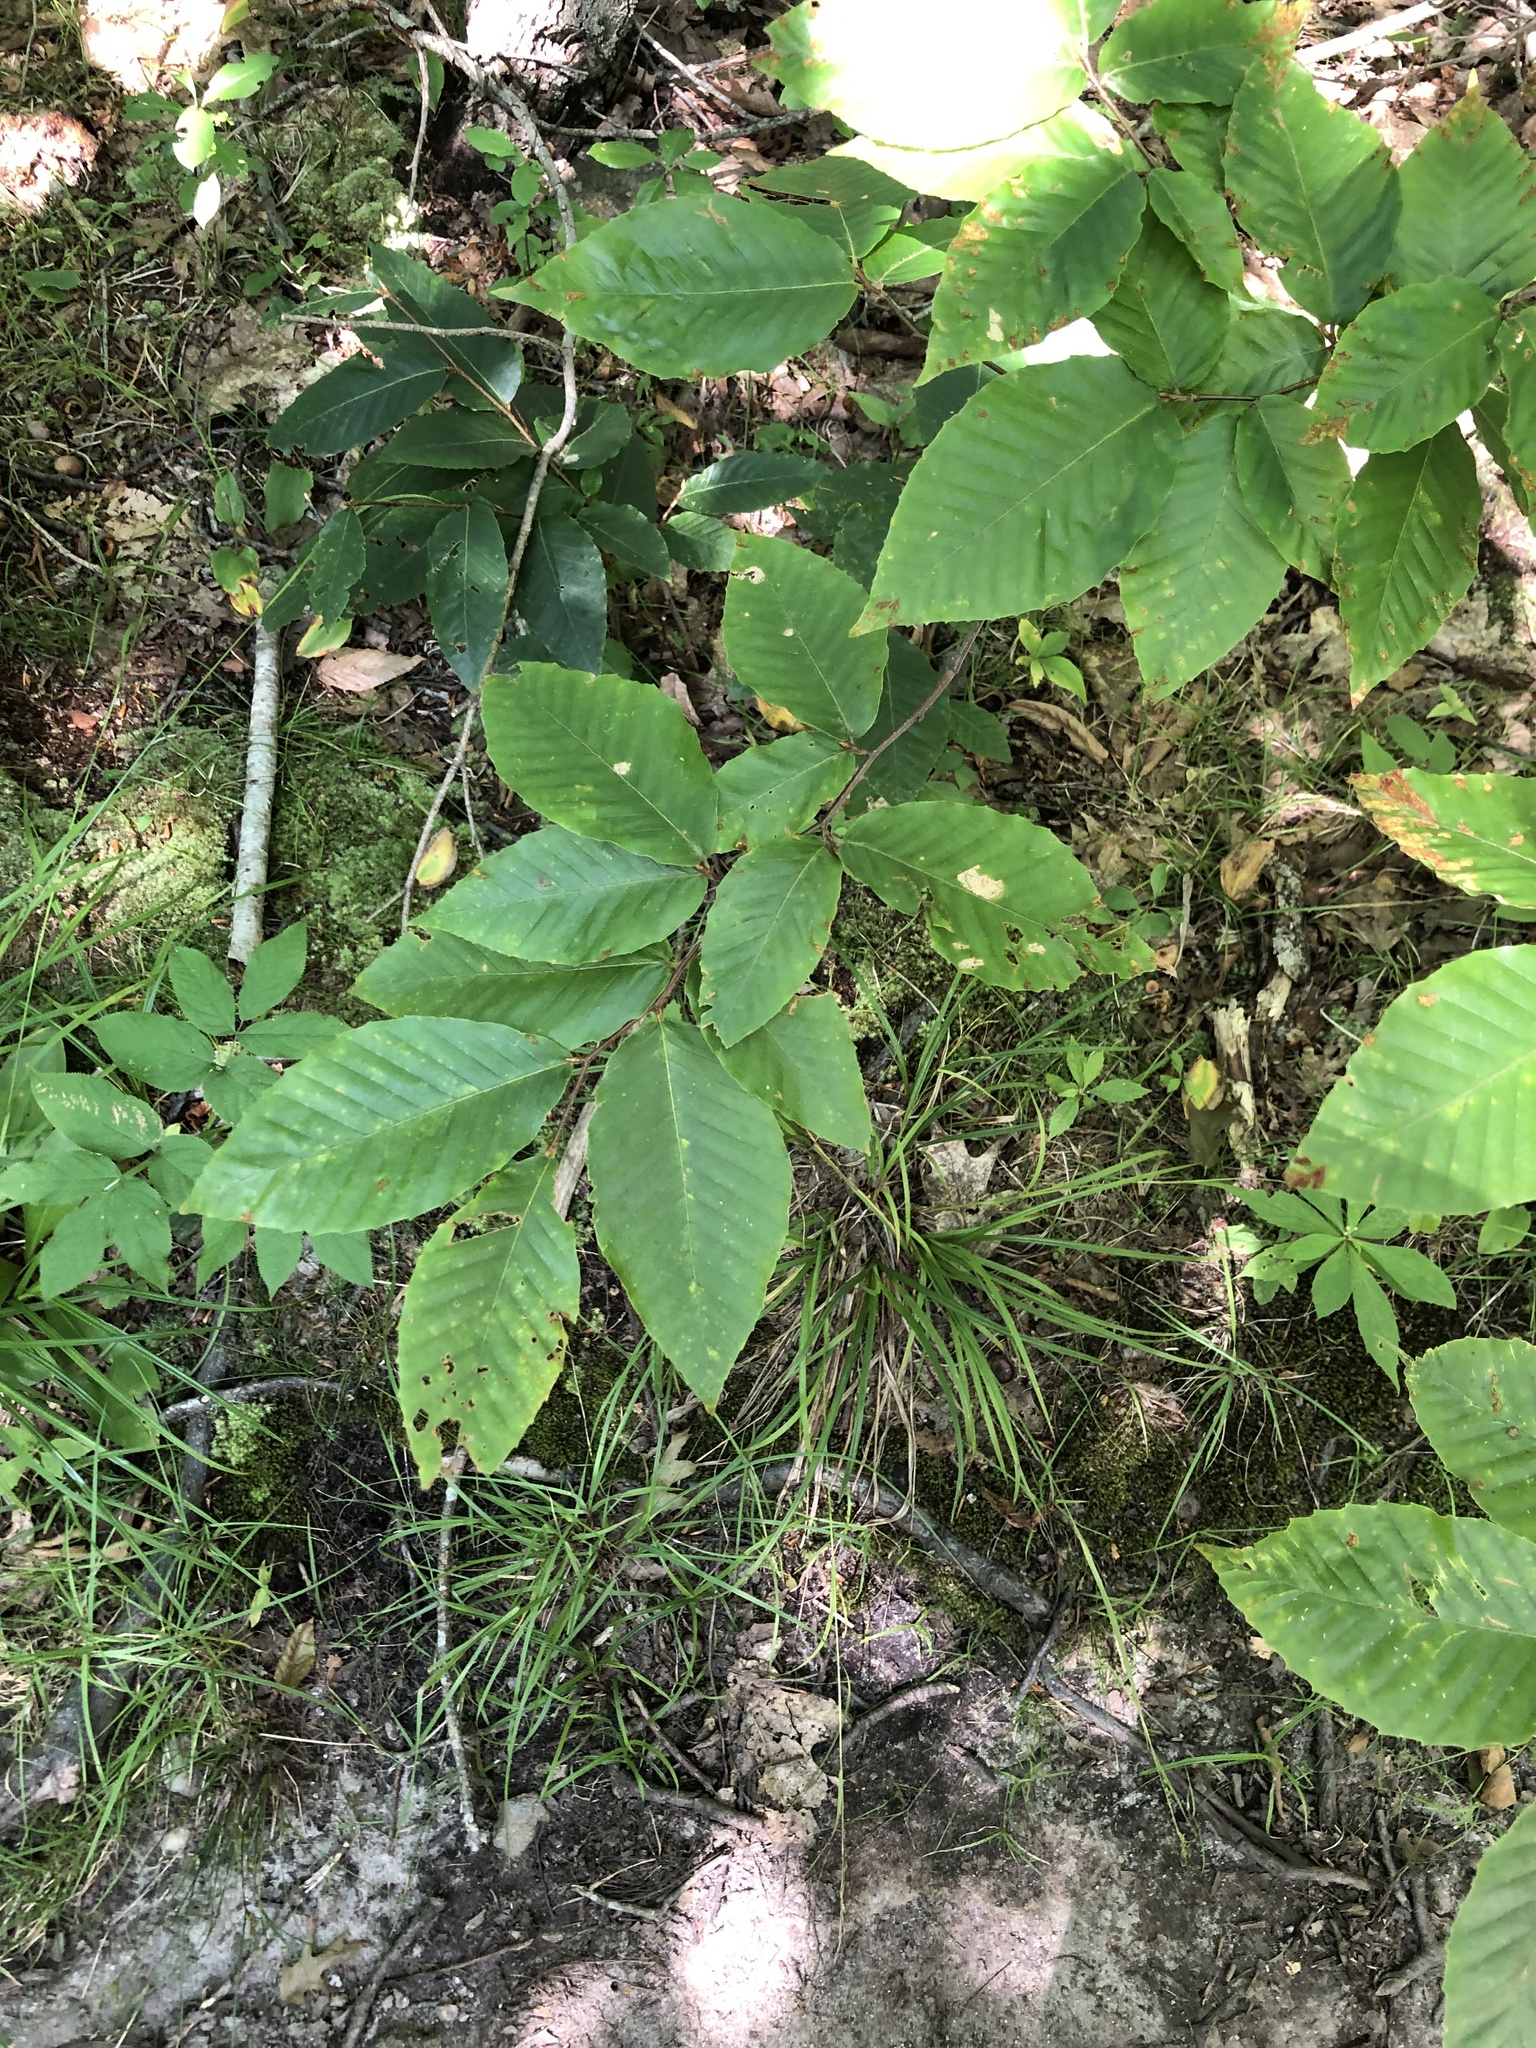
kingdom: Plantae
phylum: Tracheophyta
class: Magnoliopsida
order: Fagales
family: Fagaceae
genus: Fagus
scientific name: Fagus grandifolia
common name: American beech
